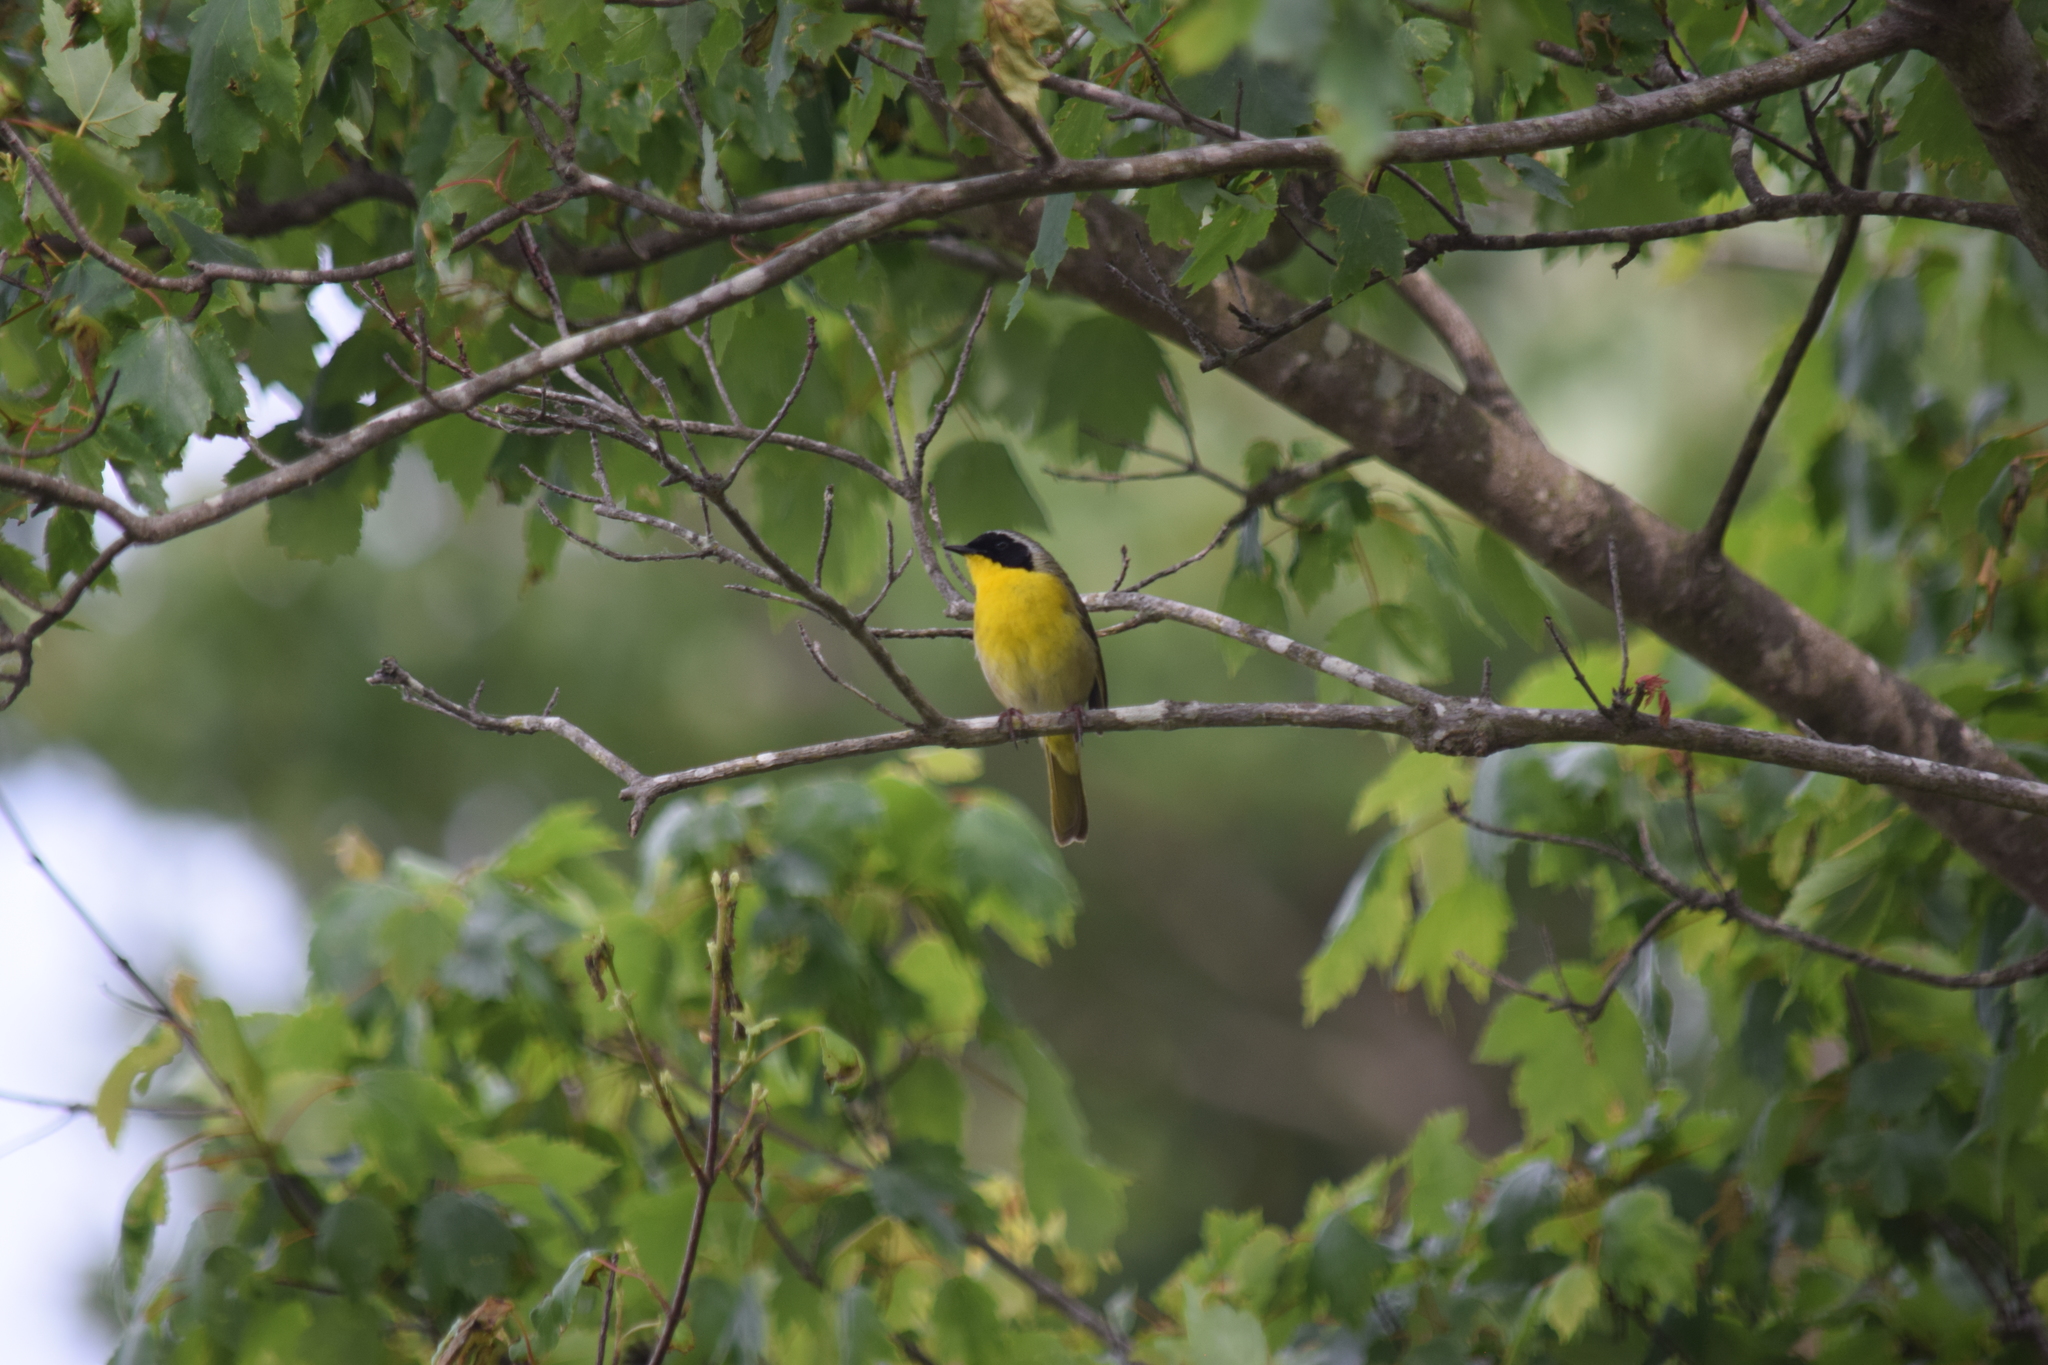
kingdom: Animalia
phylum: Chordata
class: Aves
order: Passeriformes
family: Parulidae
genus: Geothlypis
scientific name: Geothlypis trichas
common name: Common yellowthroat
